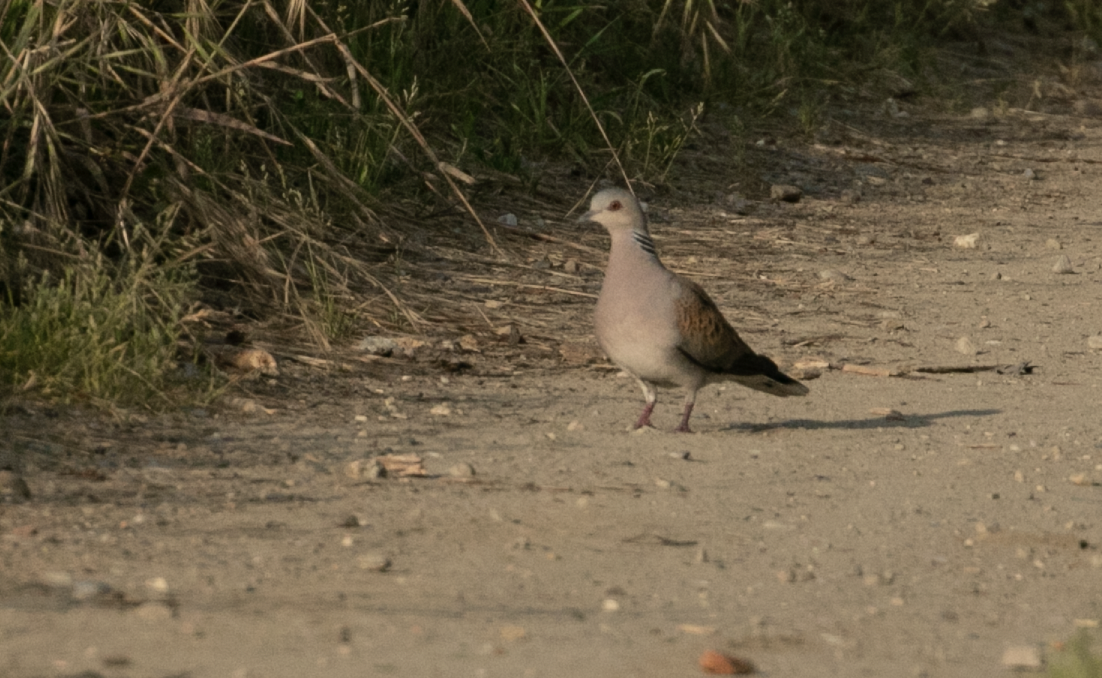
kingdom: Animalia
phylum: Chordata
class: Aves
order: Columbiformes
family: Columbidae
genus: Streptopelia
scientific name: Streptopelia turtur
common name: European turtle dove
